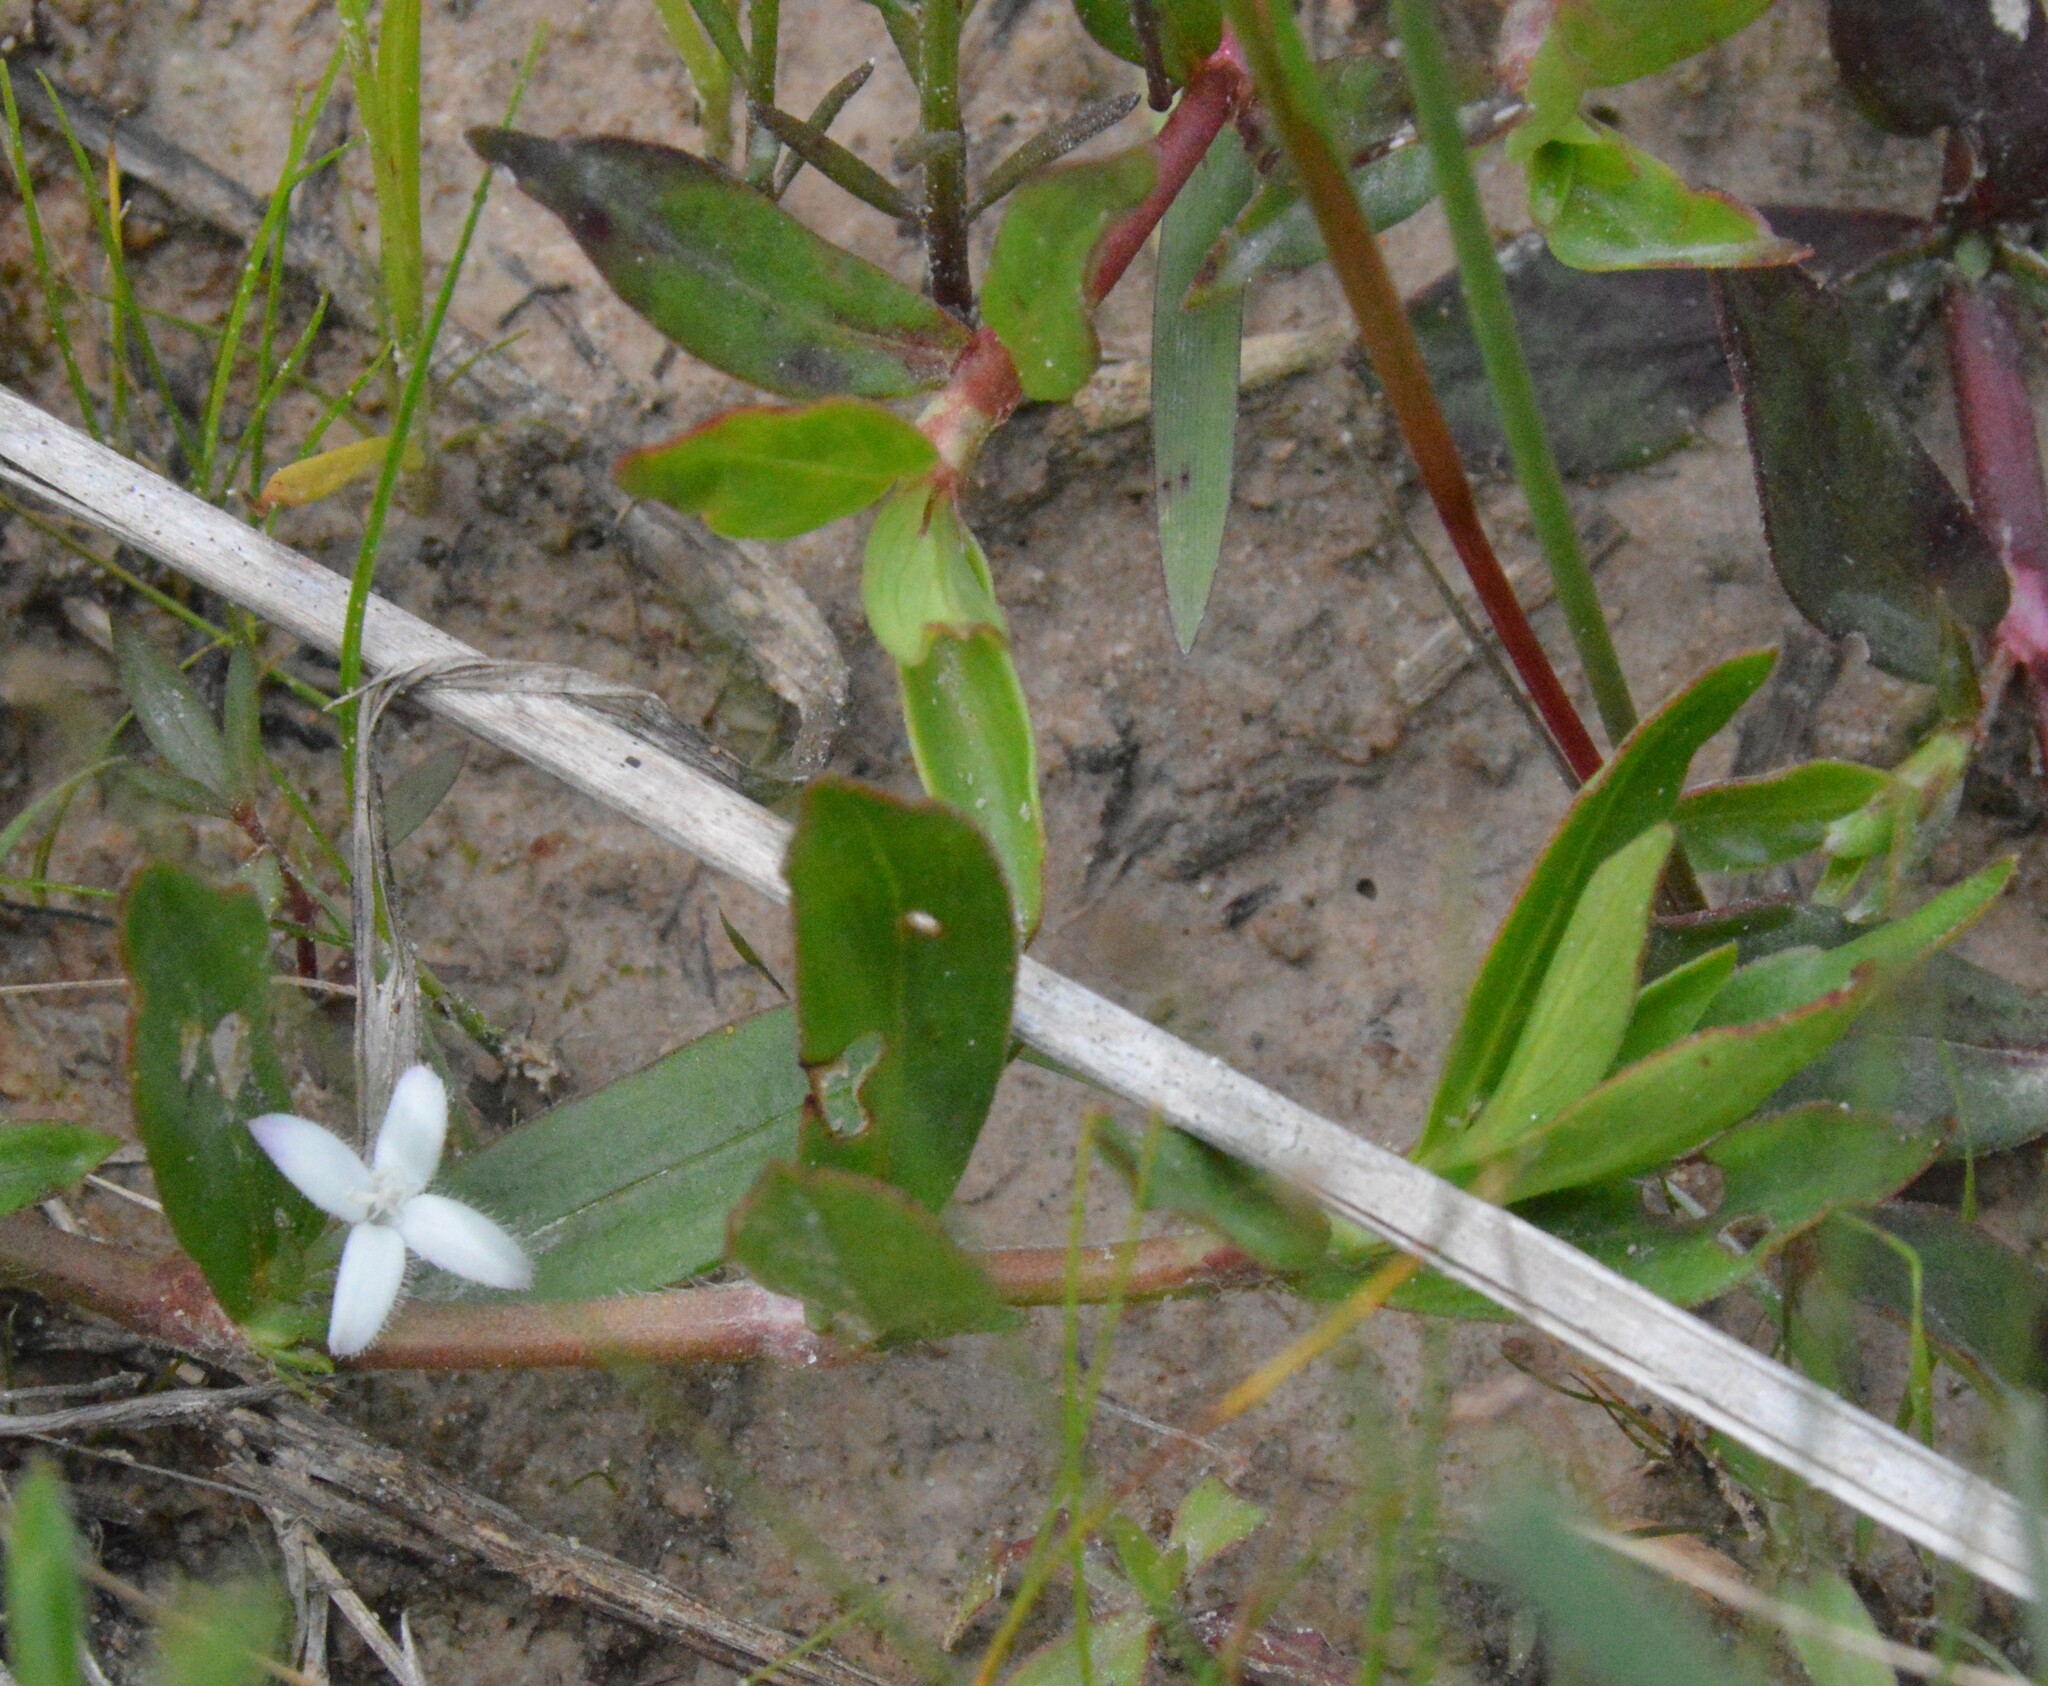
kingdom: Plantae
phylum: Tracheophyta
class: Magnoliopsida
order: Gentianales
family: Rubiaceae
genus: Diodia
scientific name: Diodia virginiana
